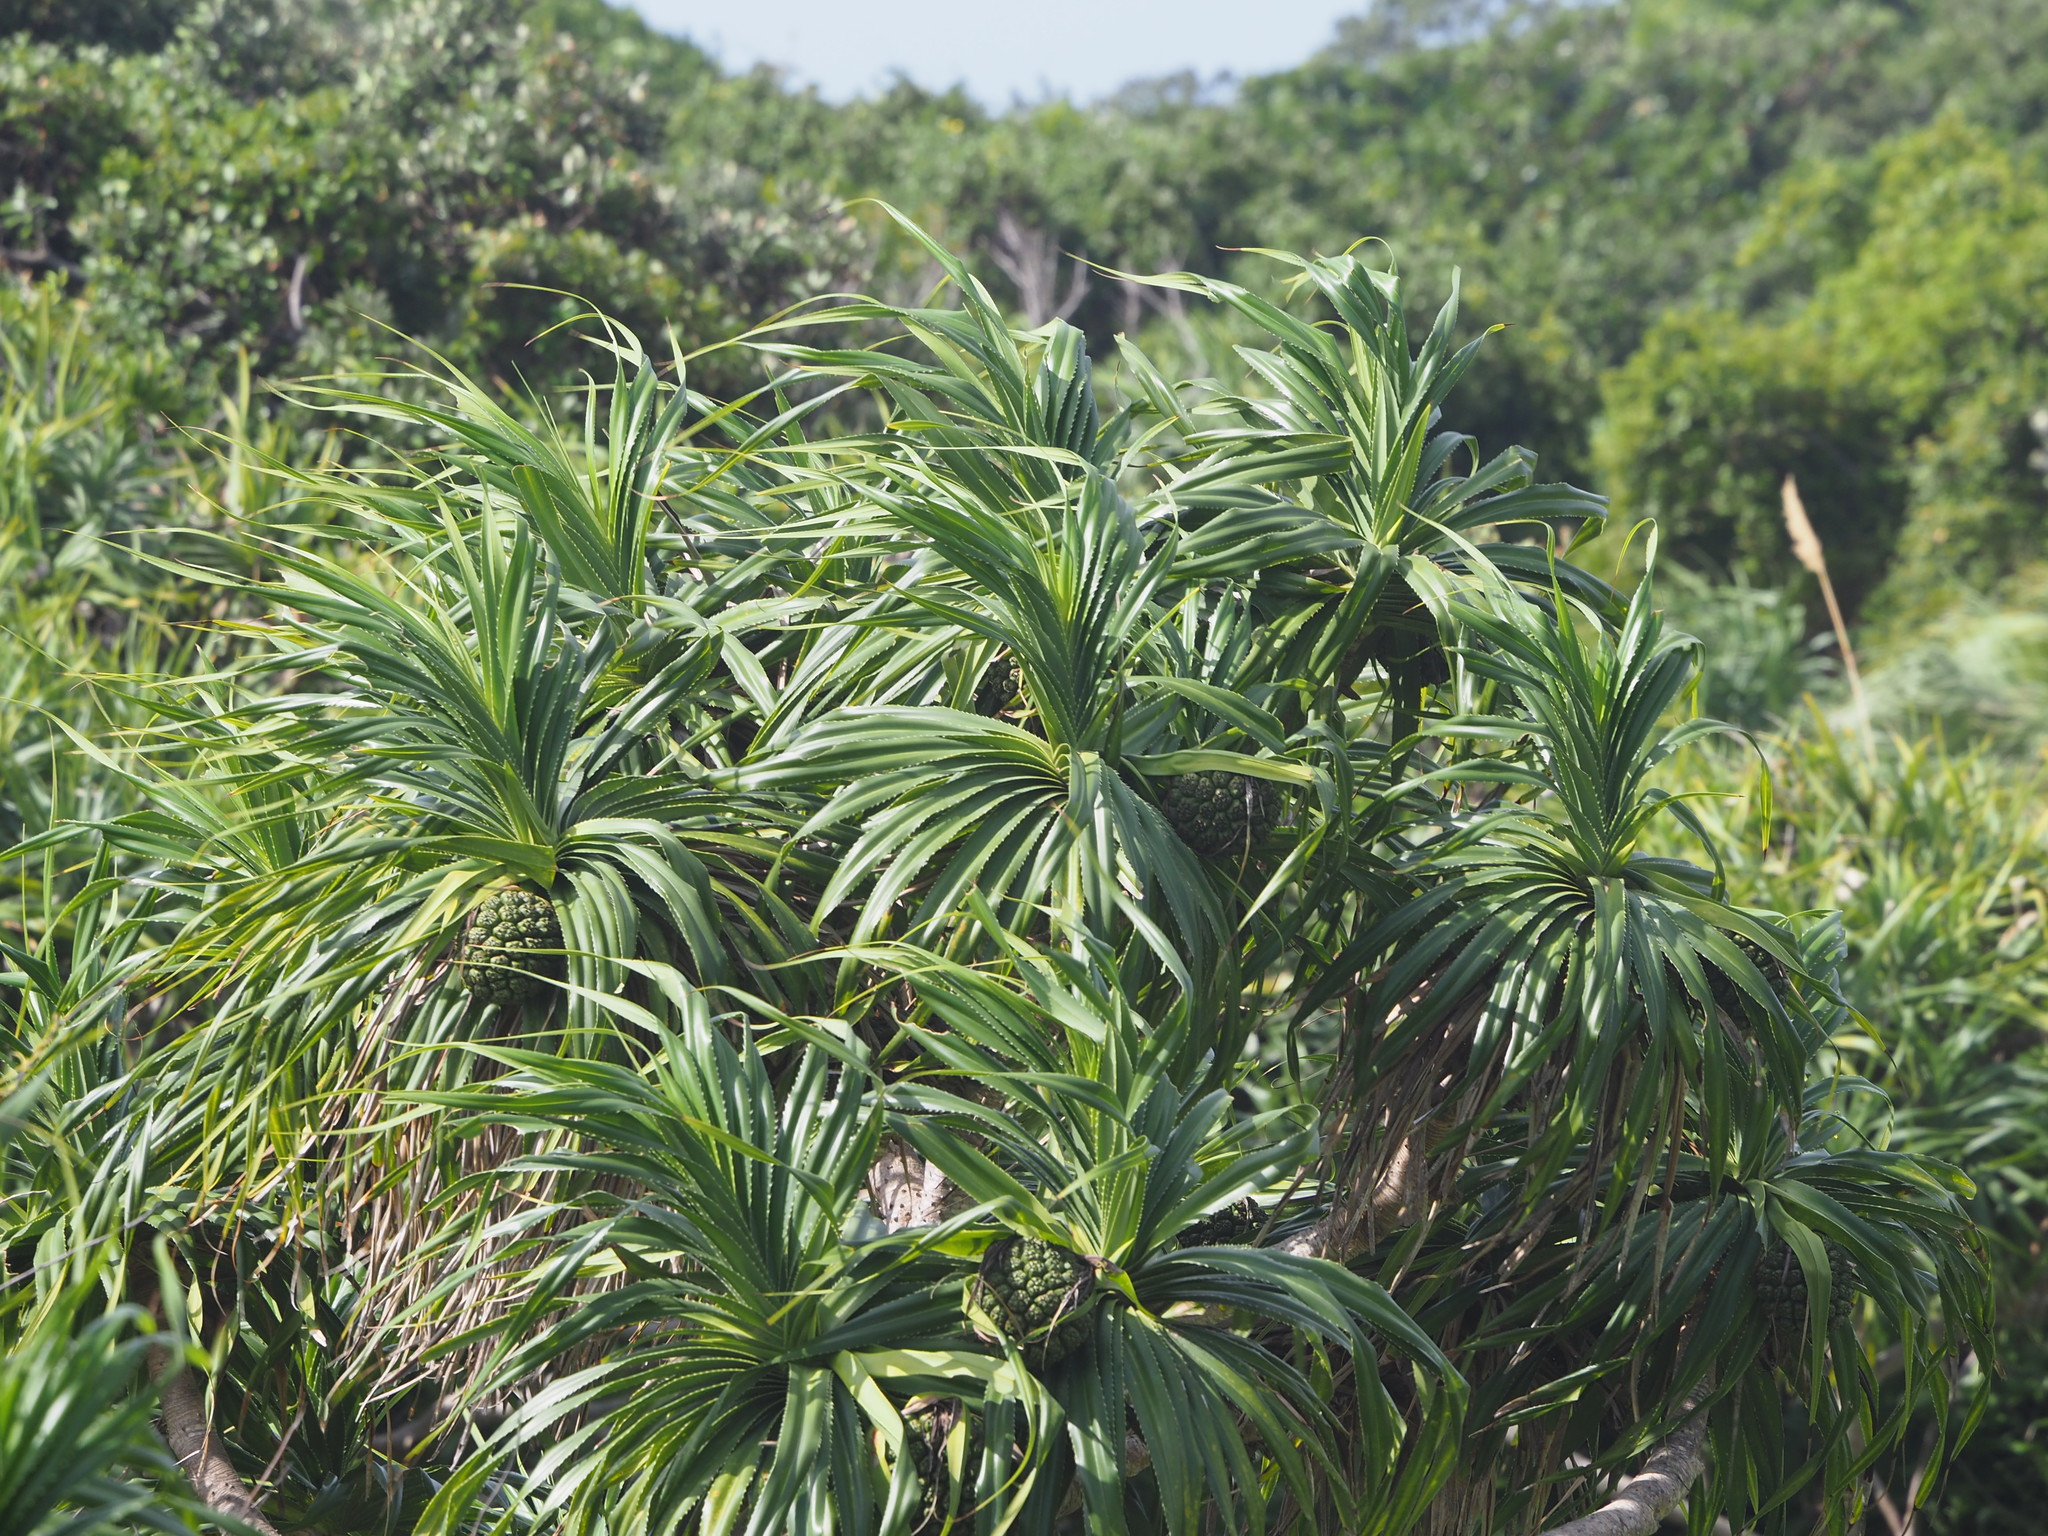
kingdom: Plantae
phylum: Tracheophyta
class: Liliopsida
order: Pandanales
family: Pandanaceae
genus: Pandanus
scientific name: Pandanus odorifer
